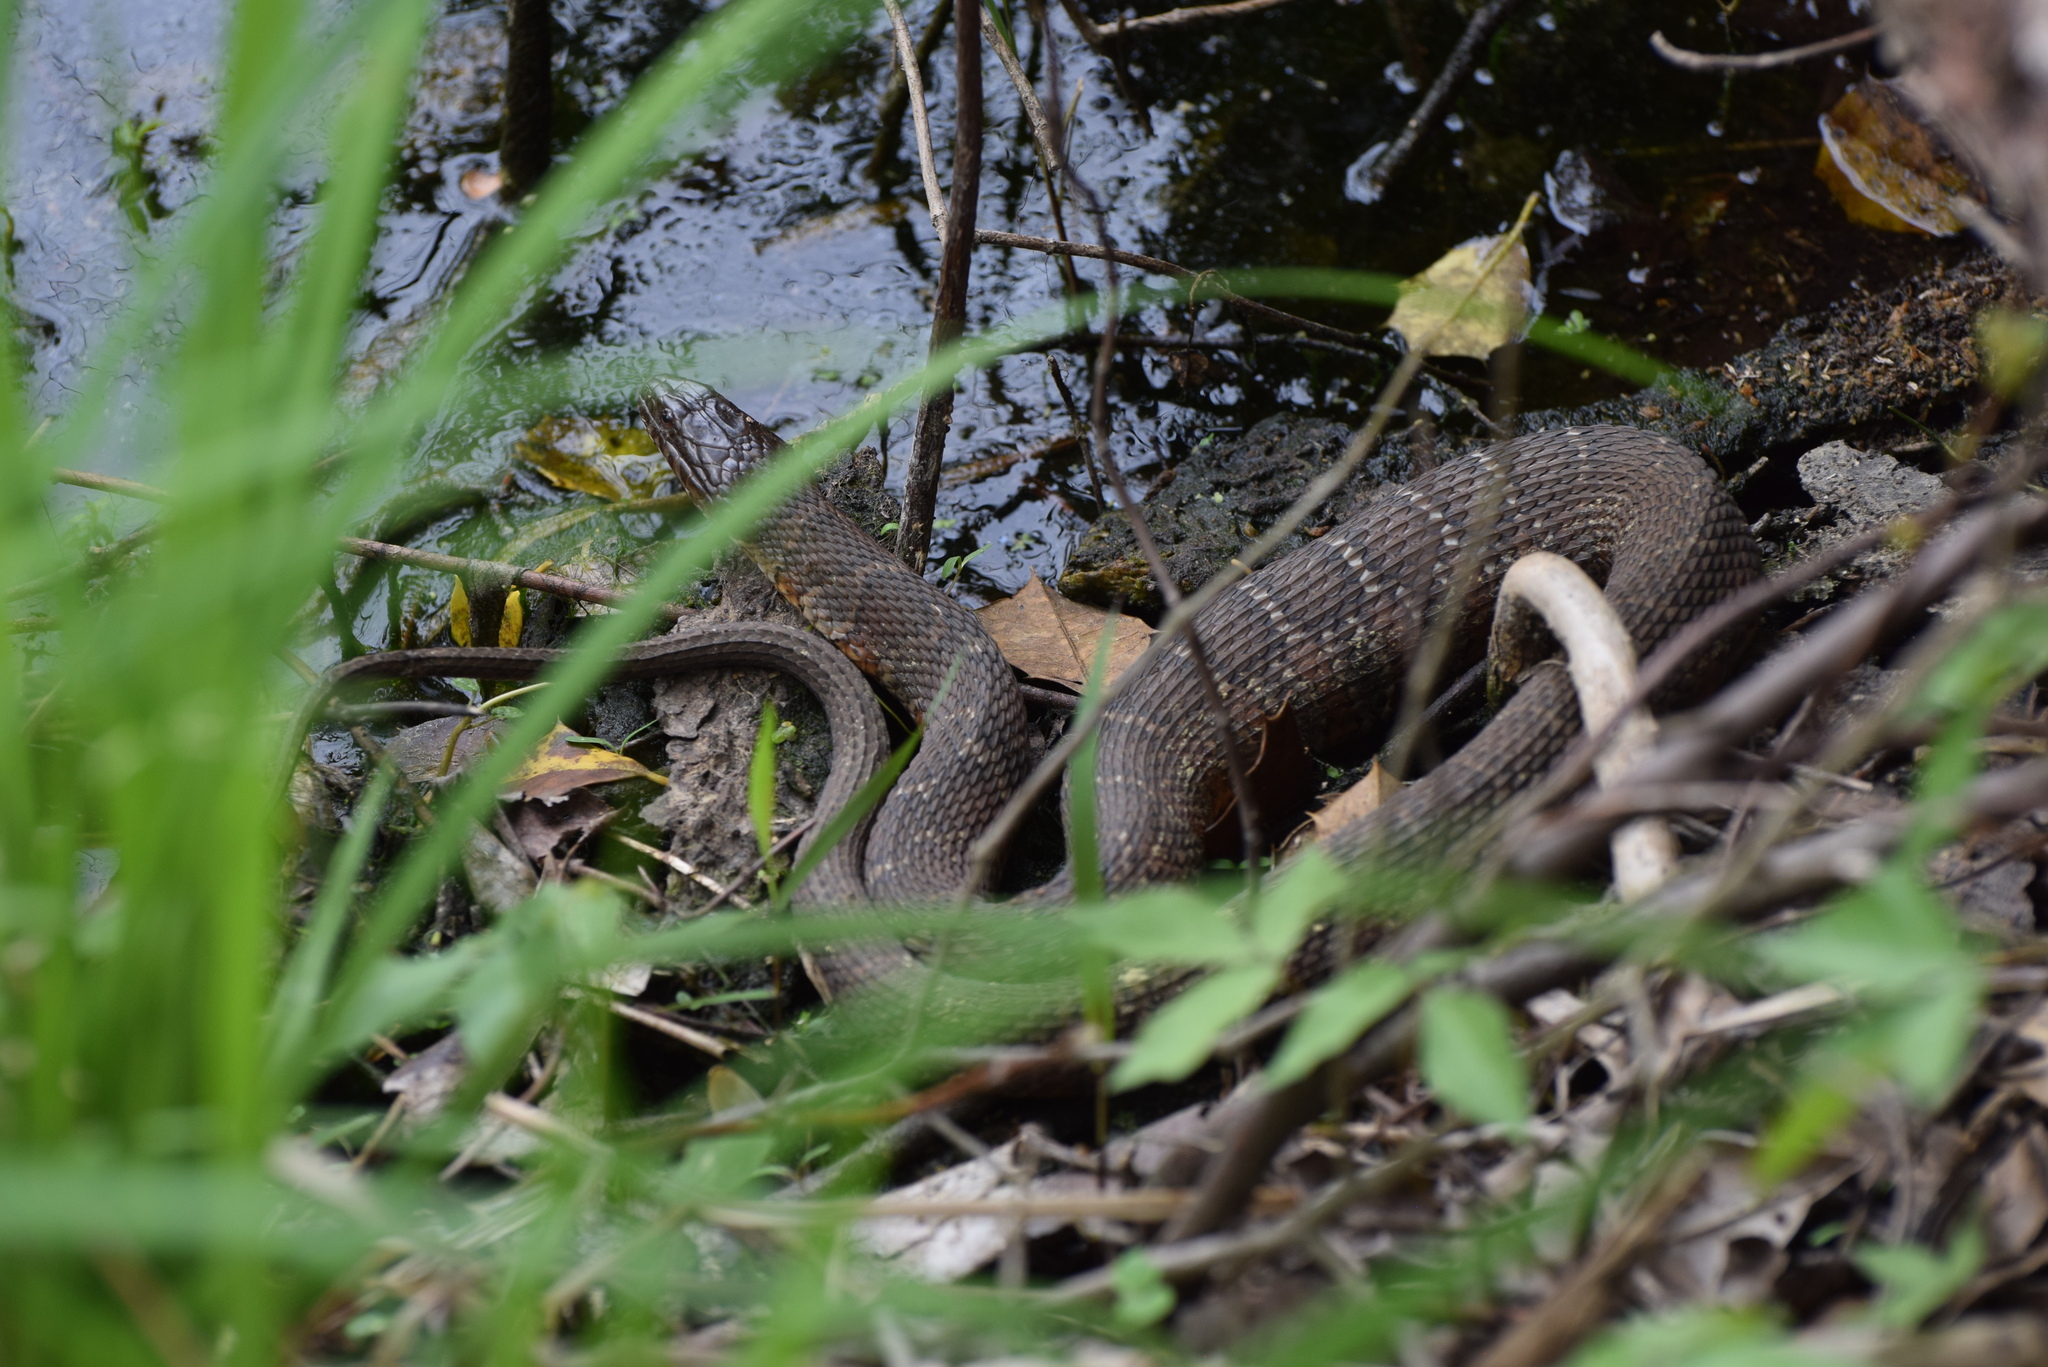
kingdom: Animalia
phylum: Chordata
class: Squamata
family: Colubridae
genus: Nerodia
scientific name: Nerodia sipedon
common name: Northern water snake
